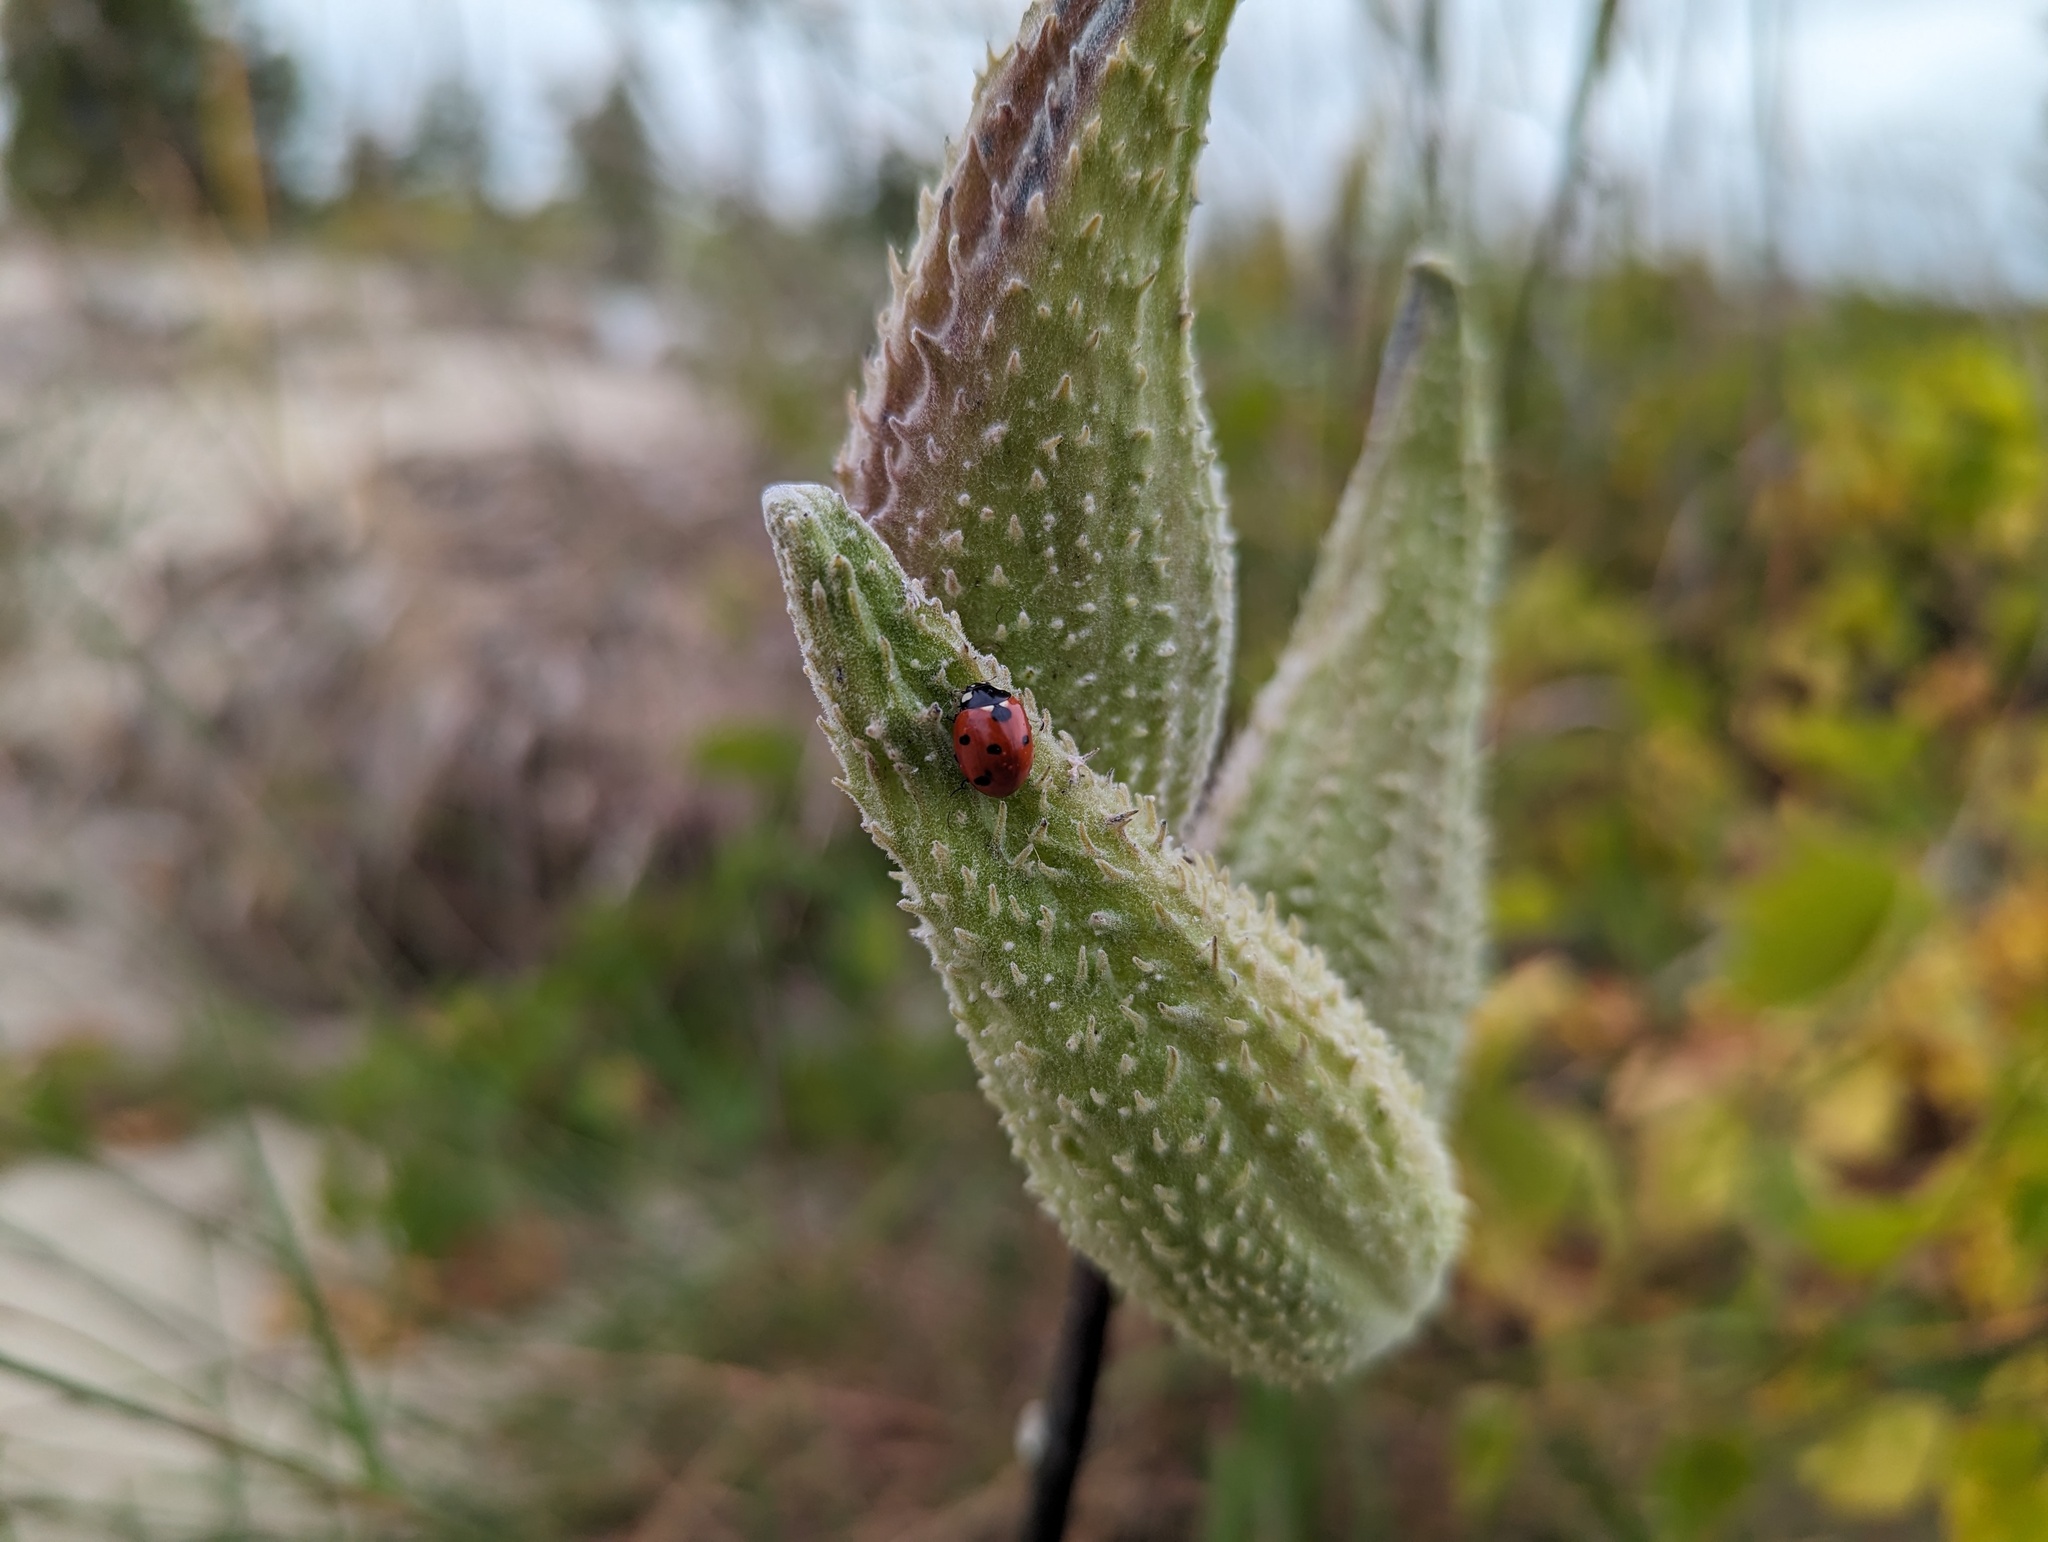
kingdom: Animalia
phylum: Arthropoda
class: Insecta
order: Coleoptera
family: Coccinellidae
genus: Coccinella
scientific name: Coccinella septempunctata
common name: Sevenspotted lady beetle
